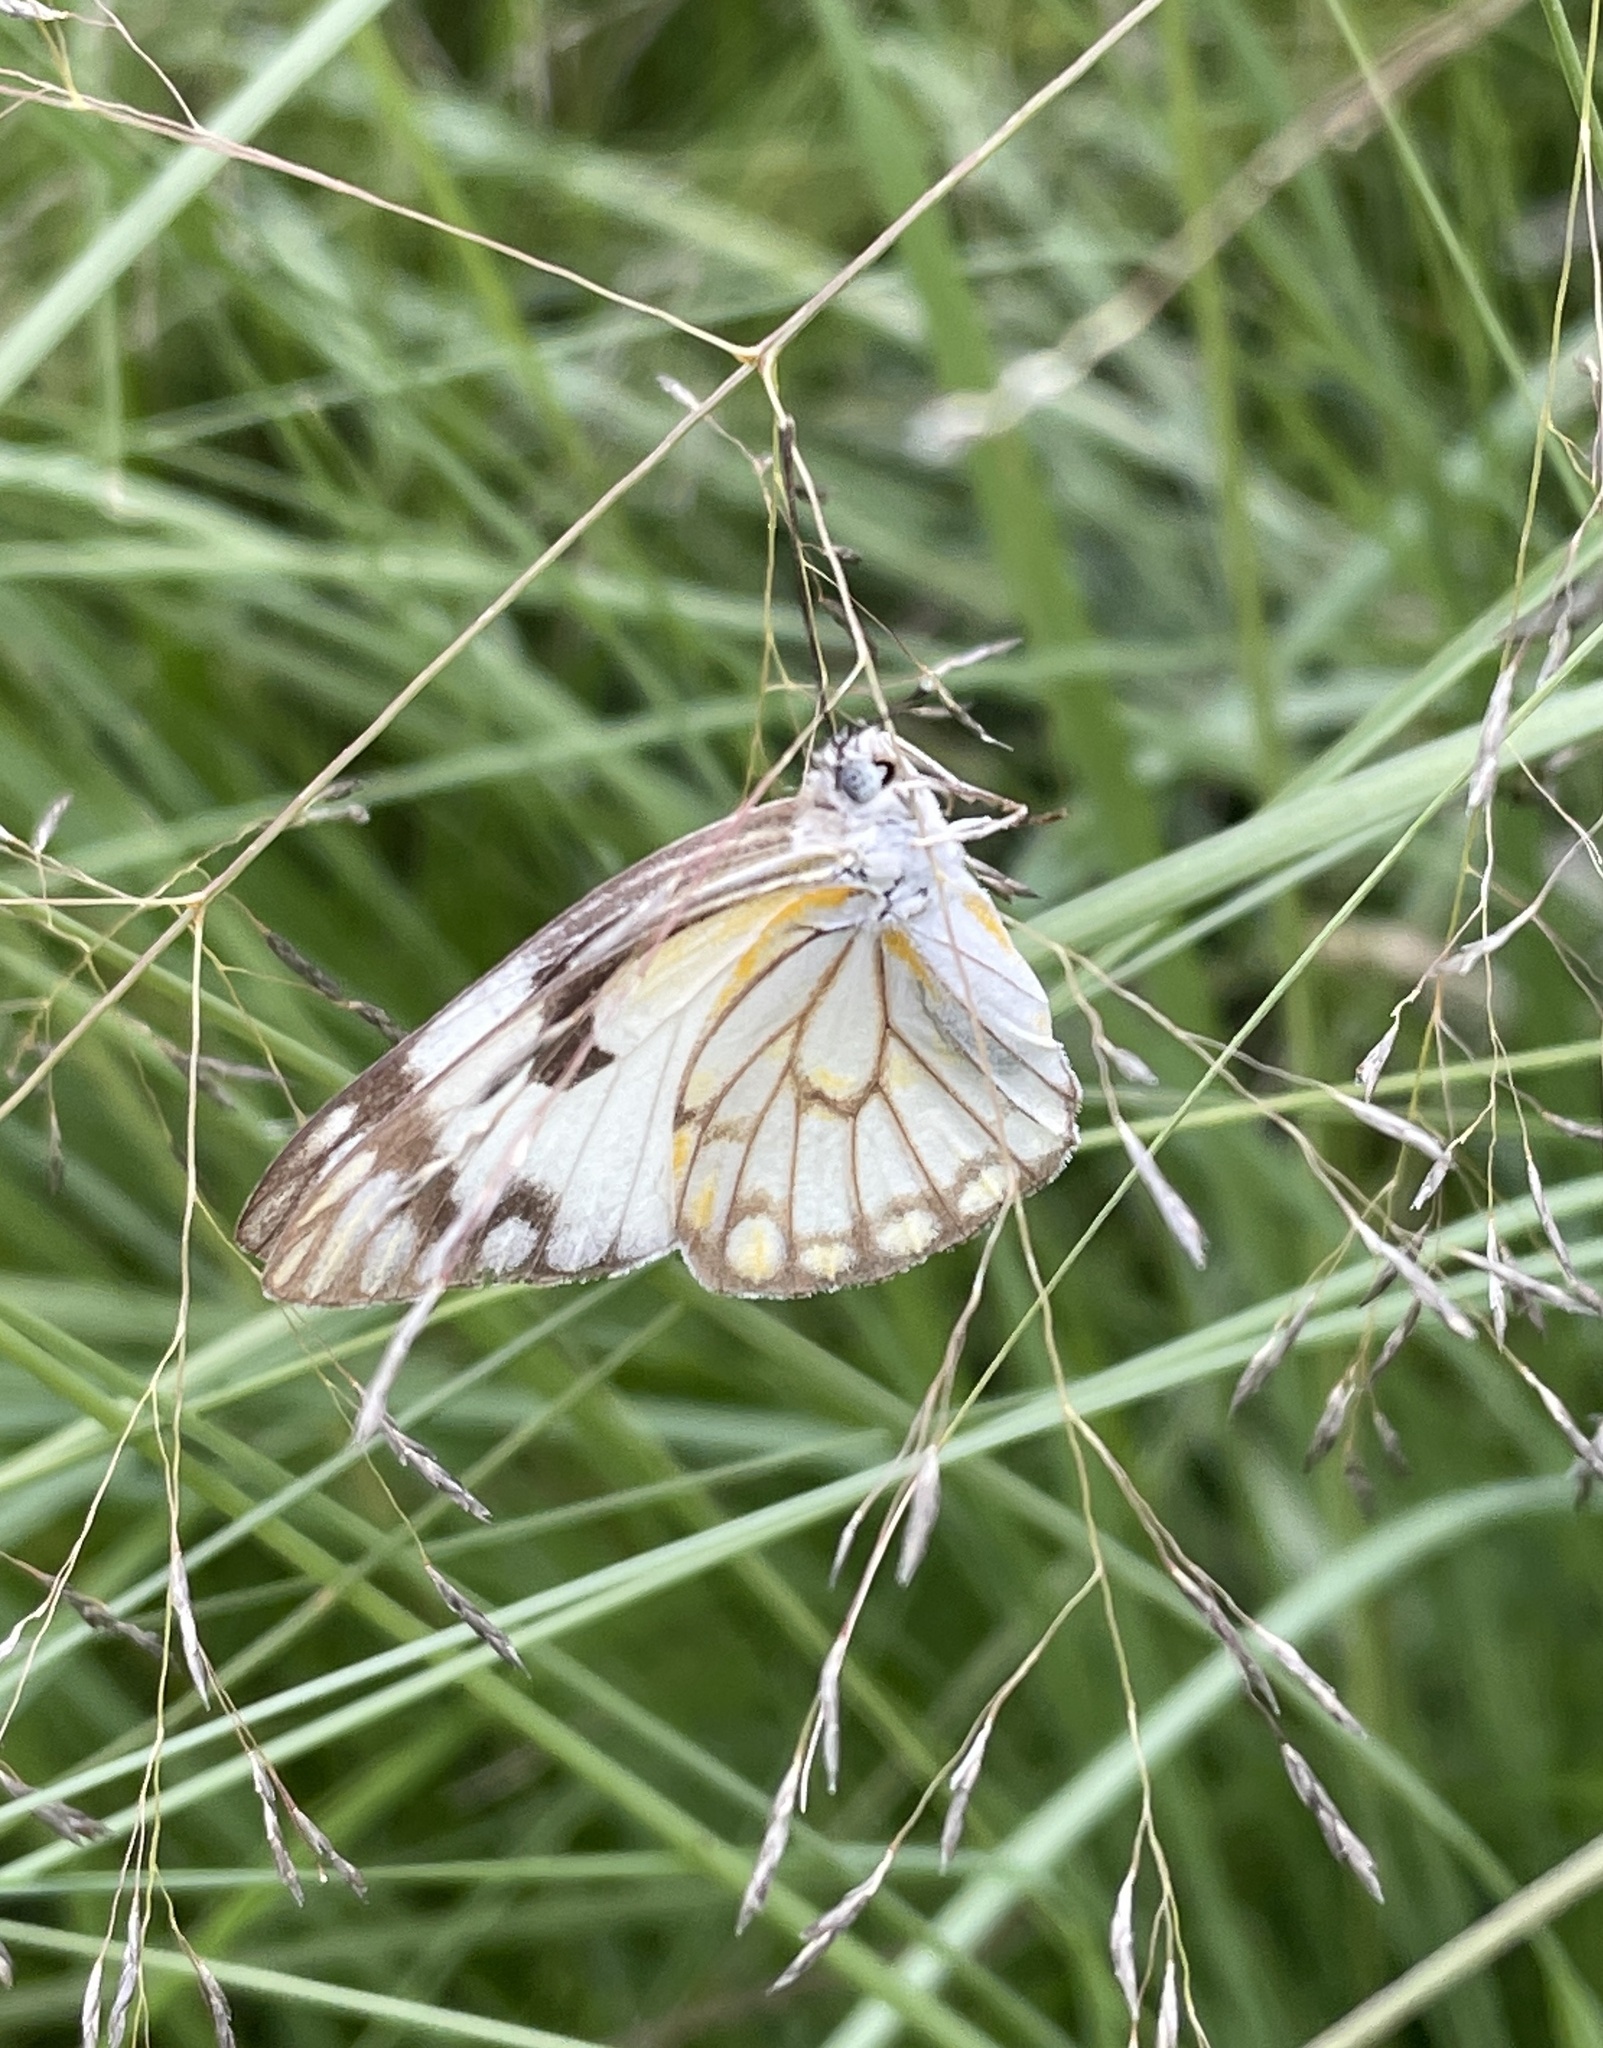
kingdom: Animalia
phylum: Arthropoda
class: Insecta
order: Lepidoptera
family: Pieridae
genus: Belenois
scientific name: Belenois aurota
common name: Brown-veined white
